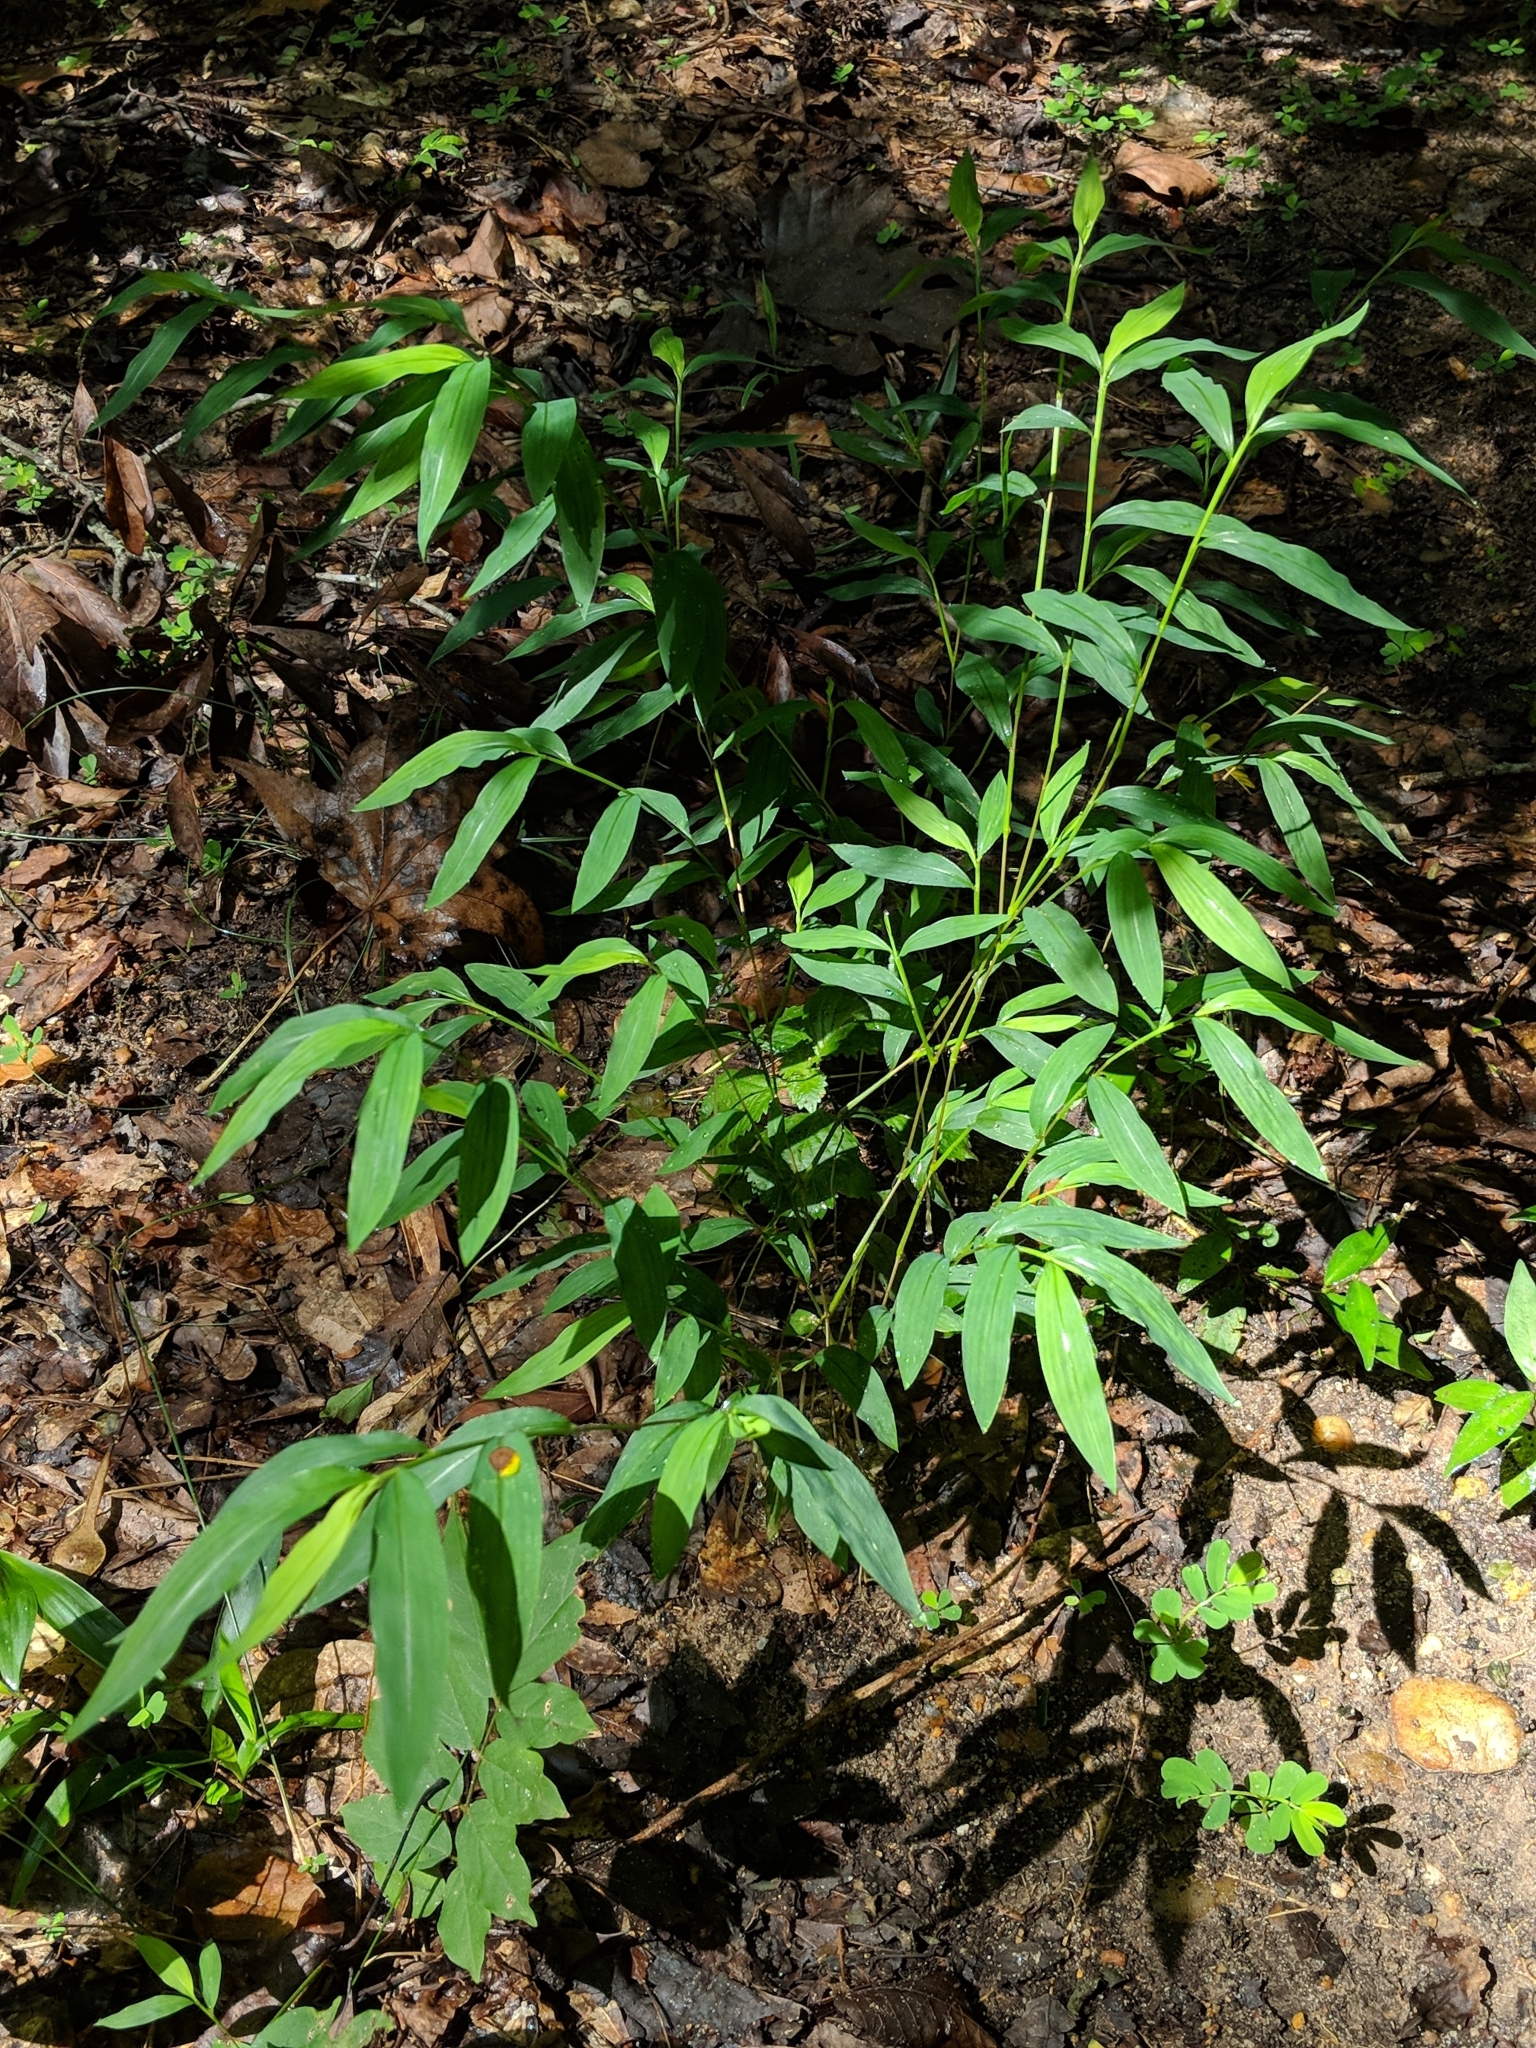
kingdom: Plantae
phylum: Tracheophyta
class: Liliopsida
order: Poales
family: Poaceae
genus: Microstegium
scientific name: Microstegium vimineum
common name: Japanese stiltgrass
